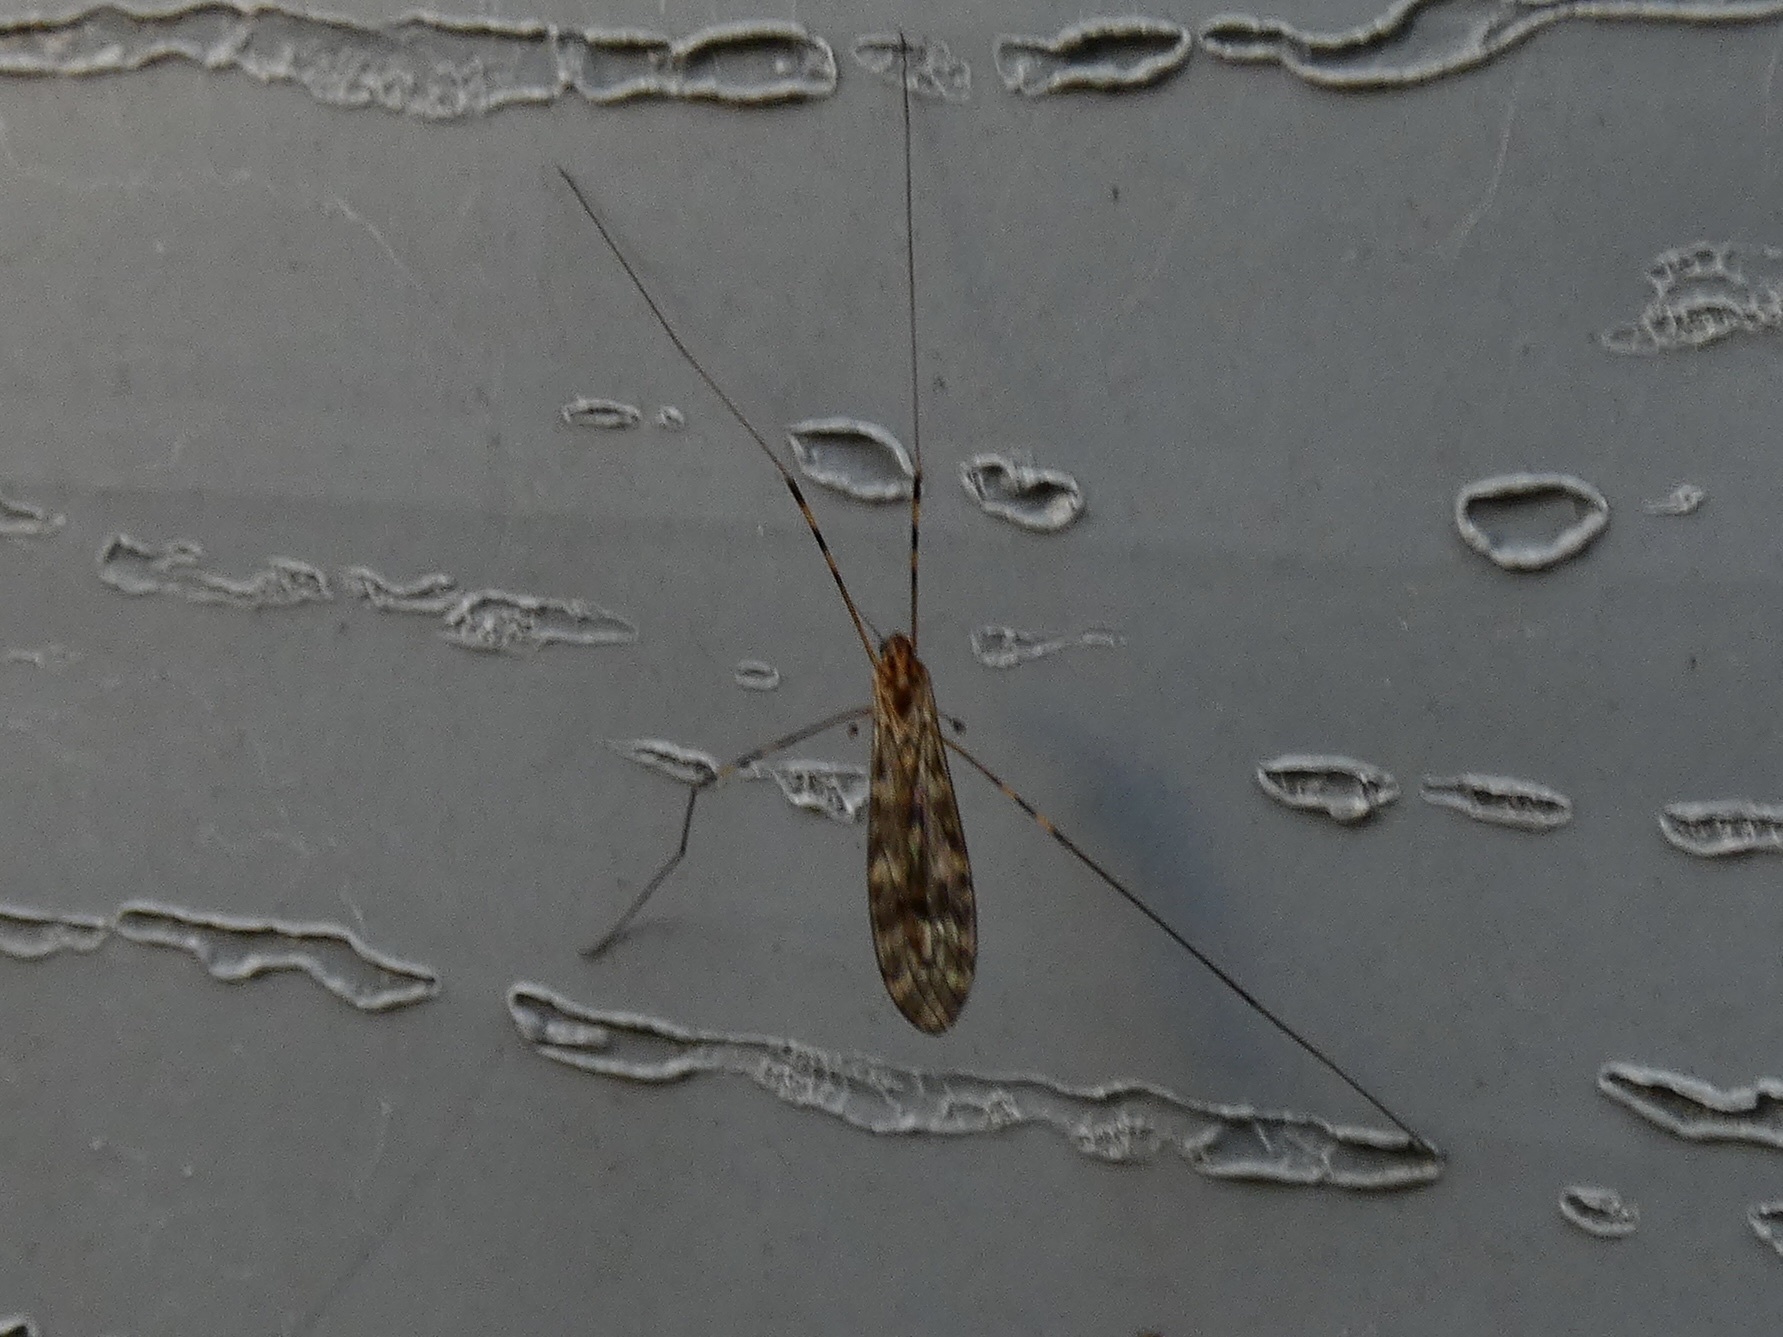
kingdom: Animalia
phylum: Arthropoda
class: Insecta
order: Diptera
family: Limoniidae
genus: Limonia
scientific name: Limonia nubeculosa
